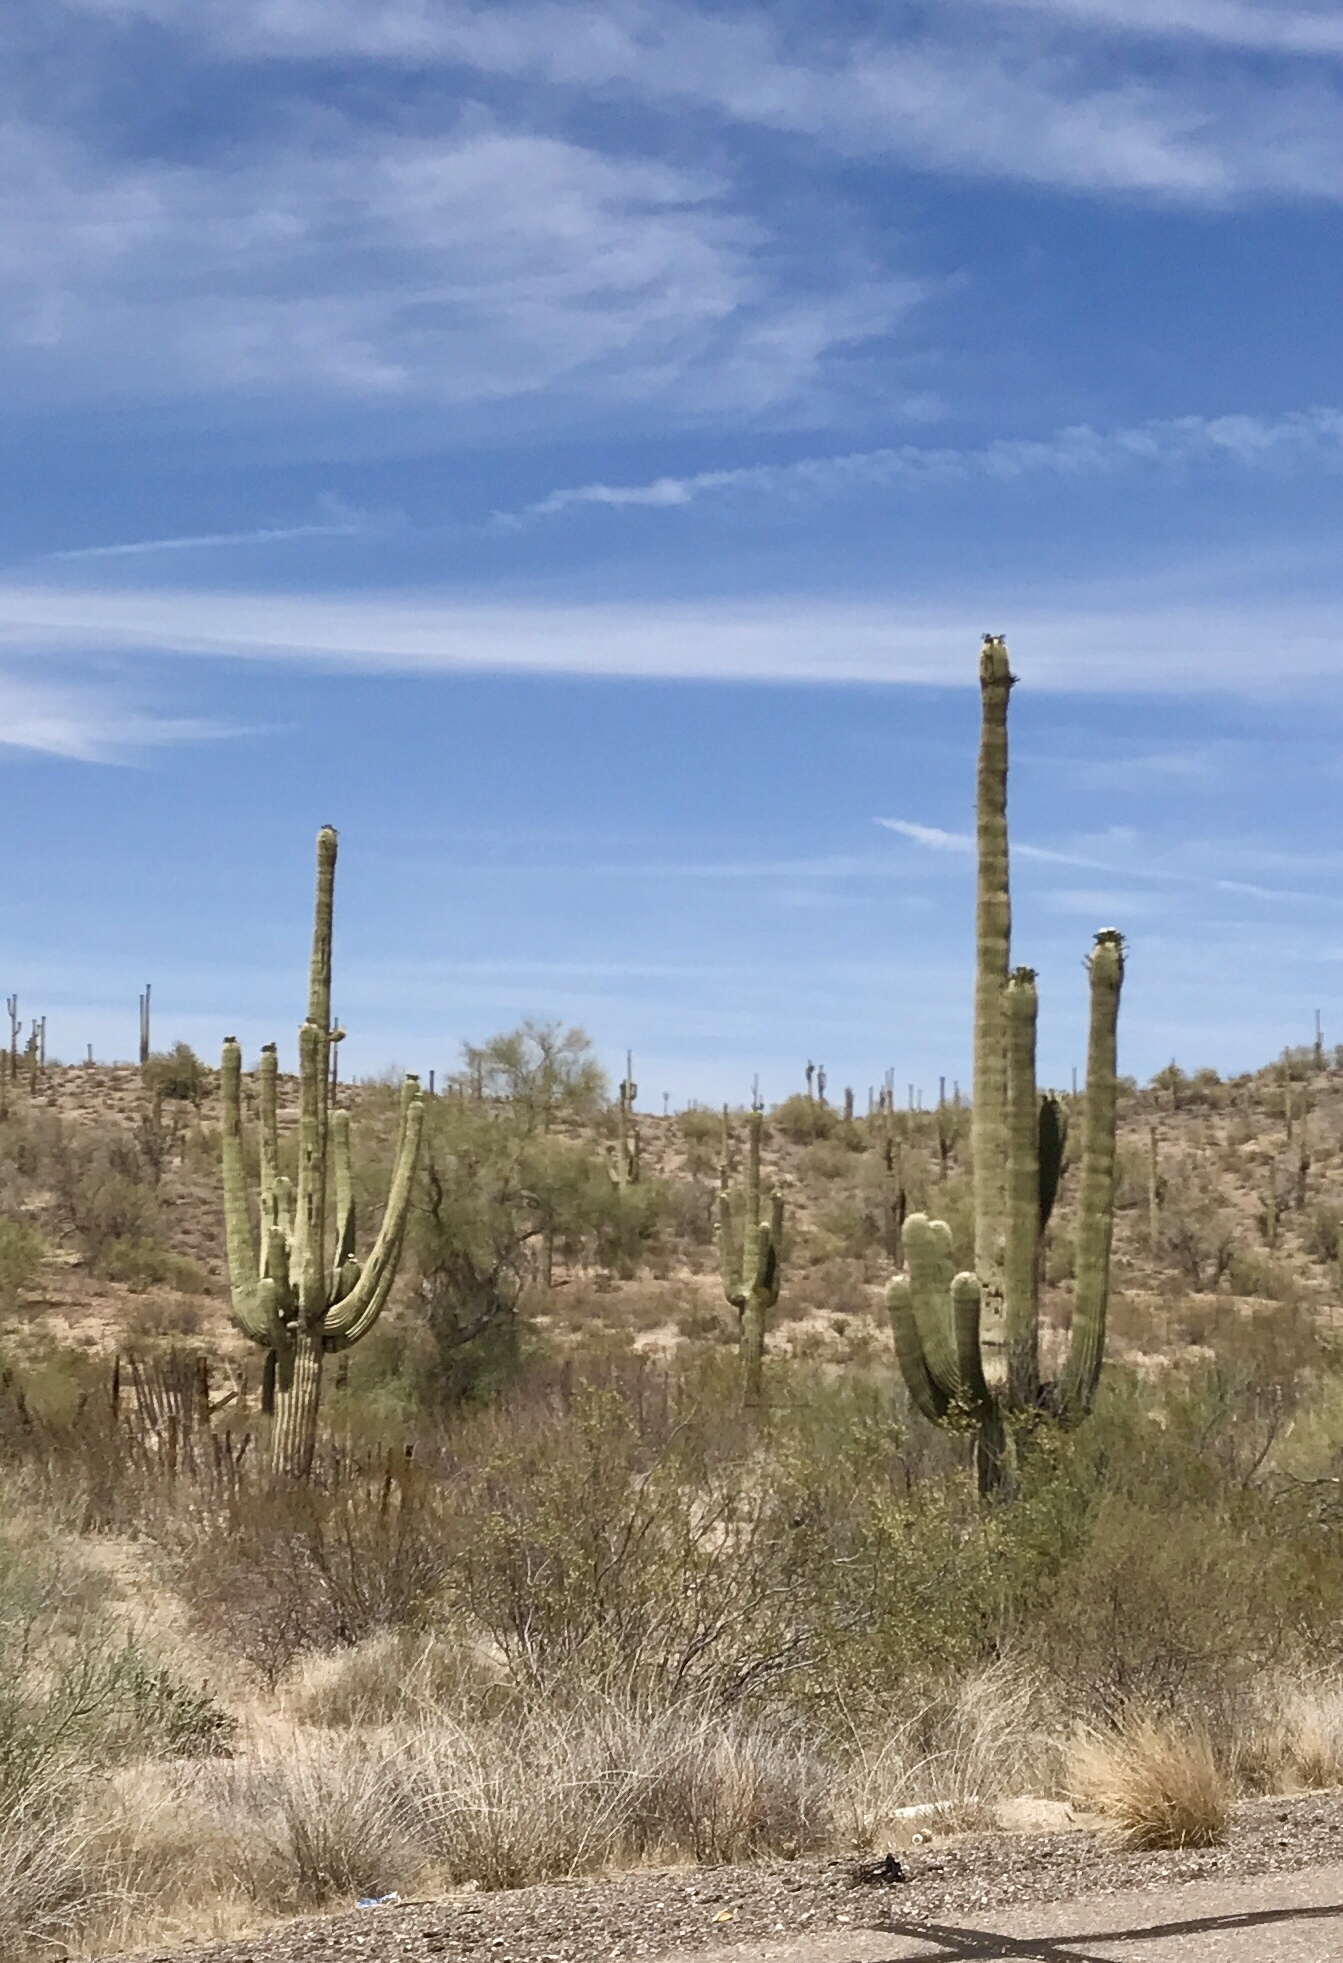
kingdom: Plantae
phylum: Tracheophyta
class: Magnoliopsida
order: Caryophyllales
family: Cactaceae
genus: Carnegiea
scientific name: Carnegiea gigantea
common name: Saguaro
